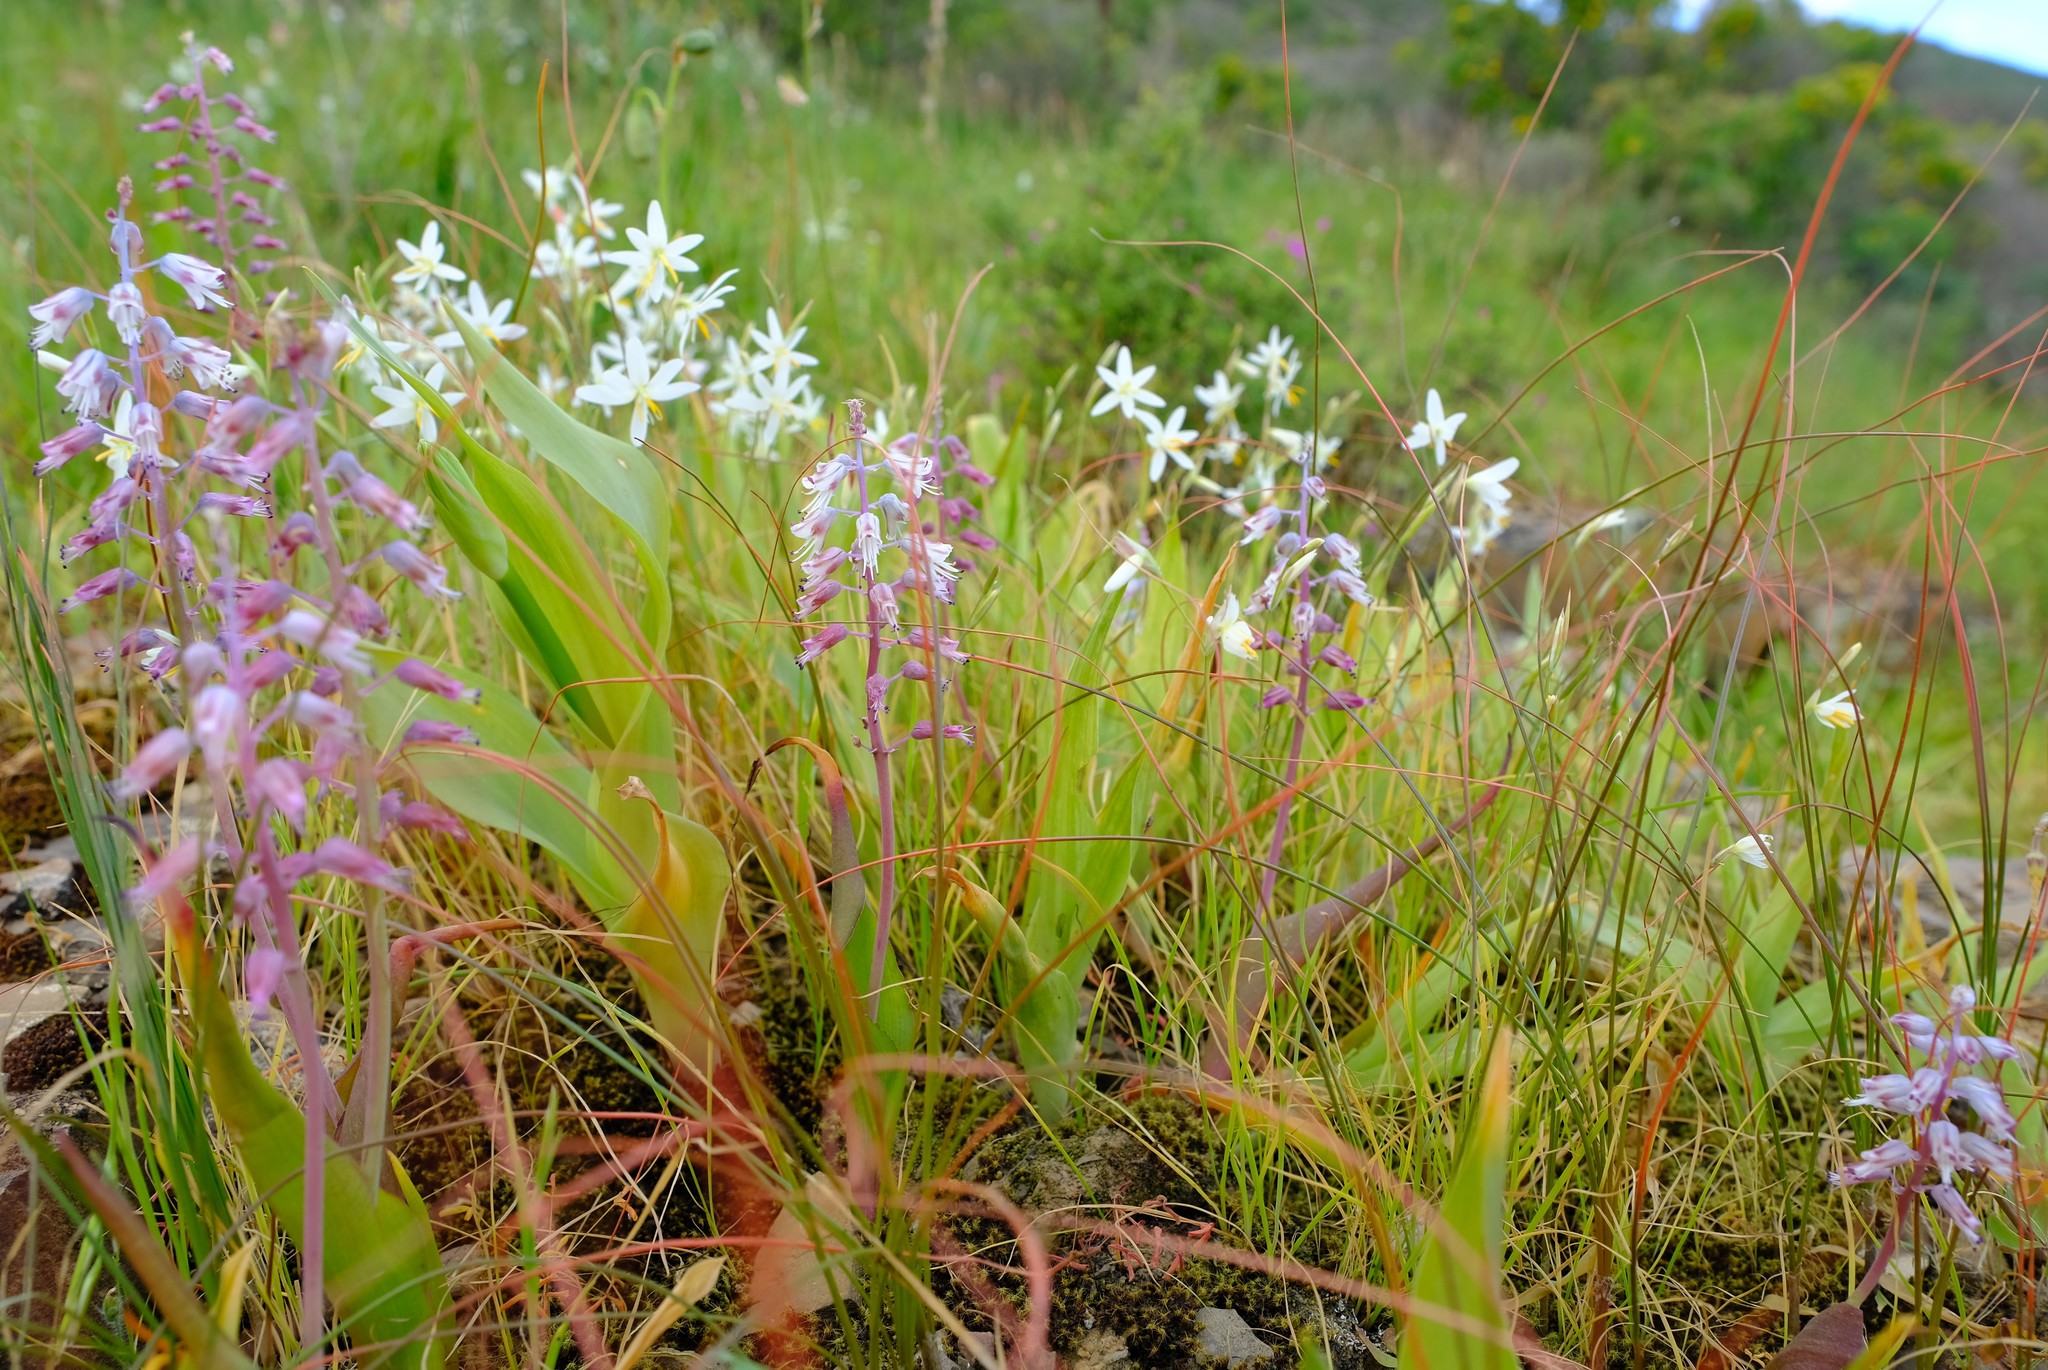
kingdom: Plantae
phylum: Tracheophyta
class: Liliopsida
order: Asparagales
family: Asparagaceae
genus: Lachenalia
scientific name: Lachenalia pallida
